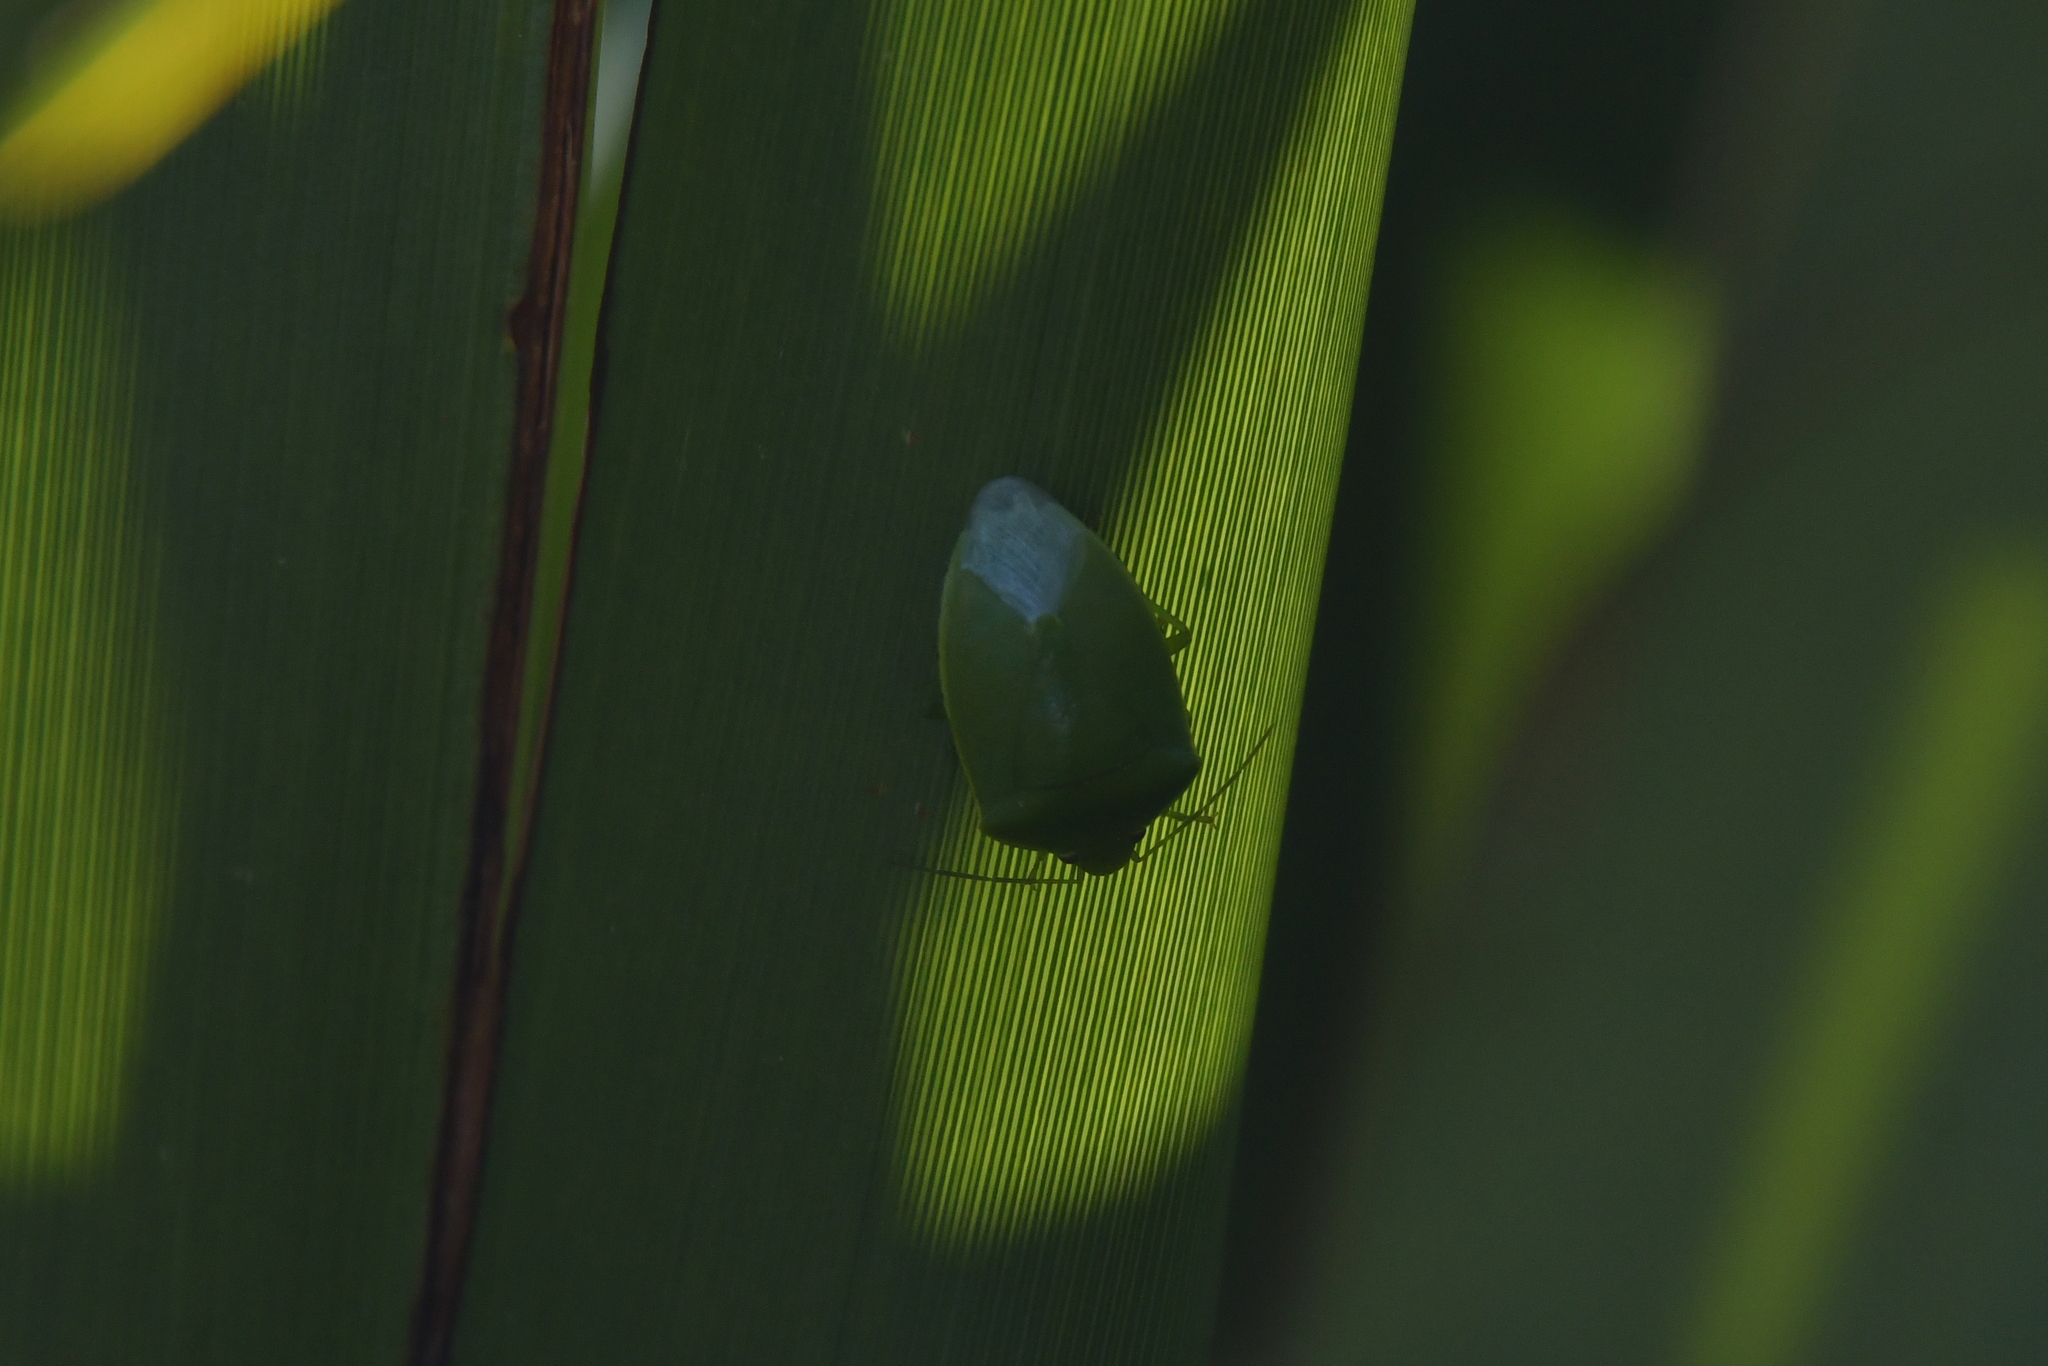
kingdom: Animalia
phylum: Arthropoda
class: Insecta
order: Hemiptera
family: Pentatomidae
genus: Glaucias
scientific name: Glaucias amyota
